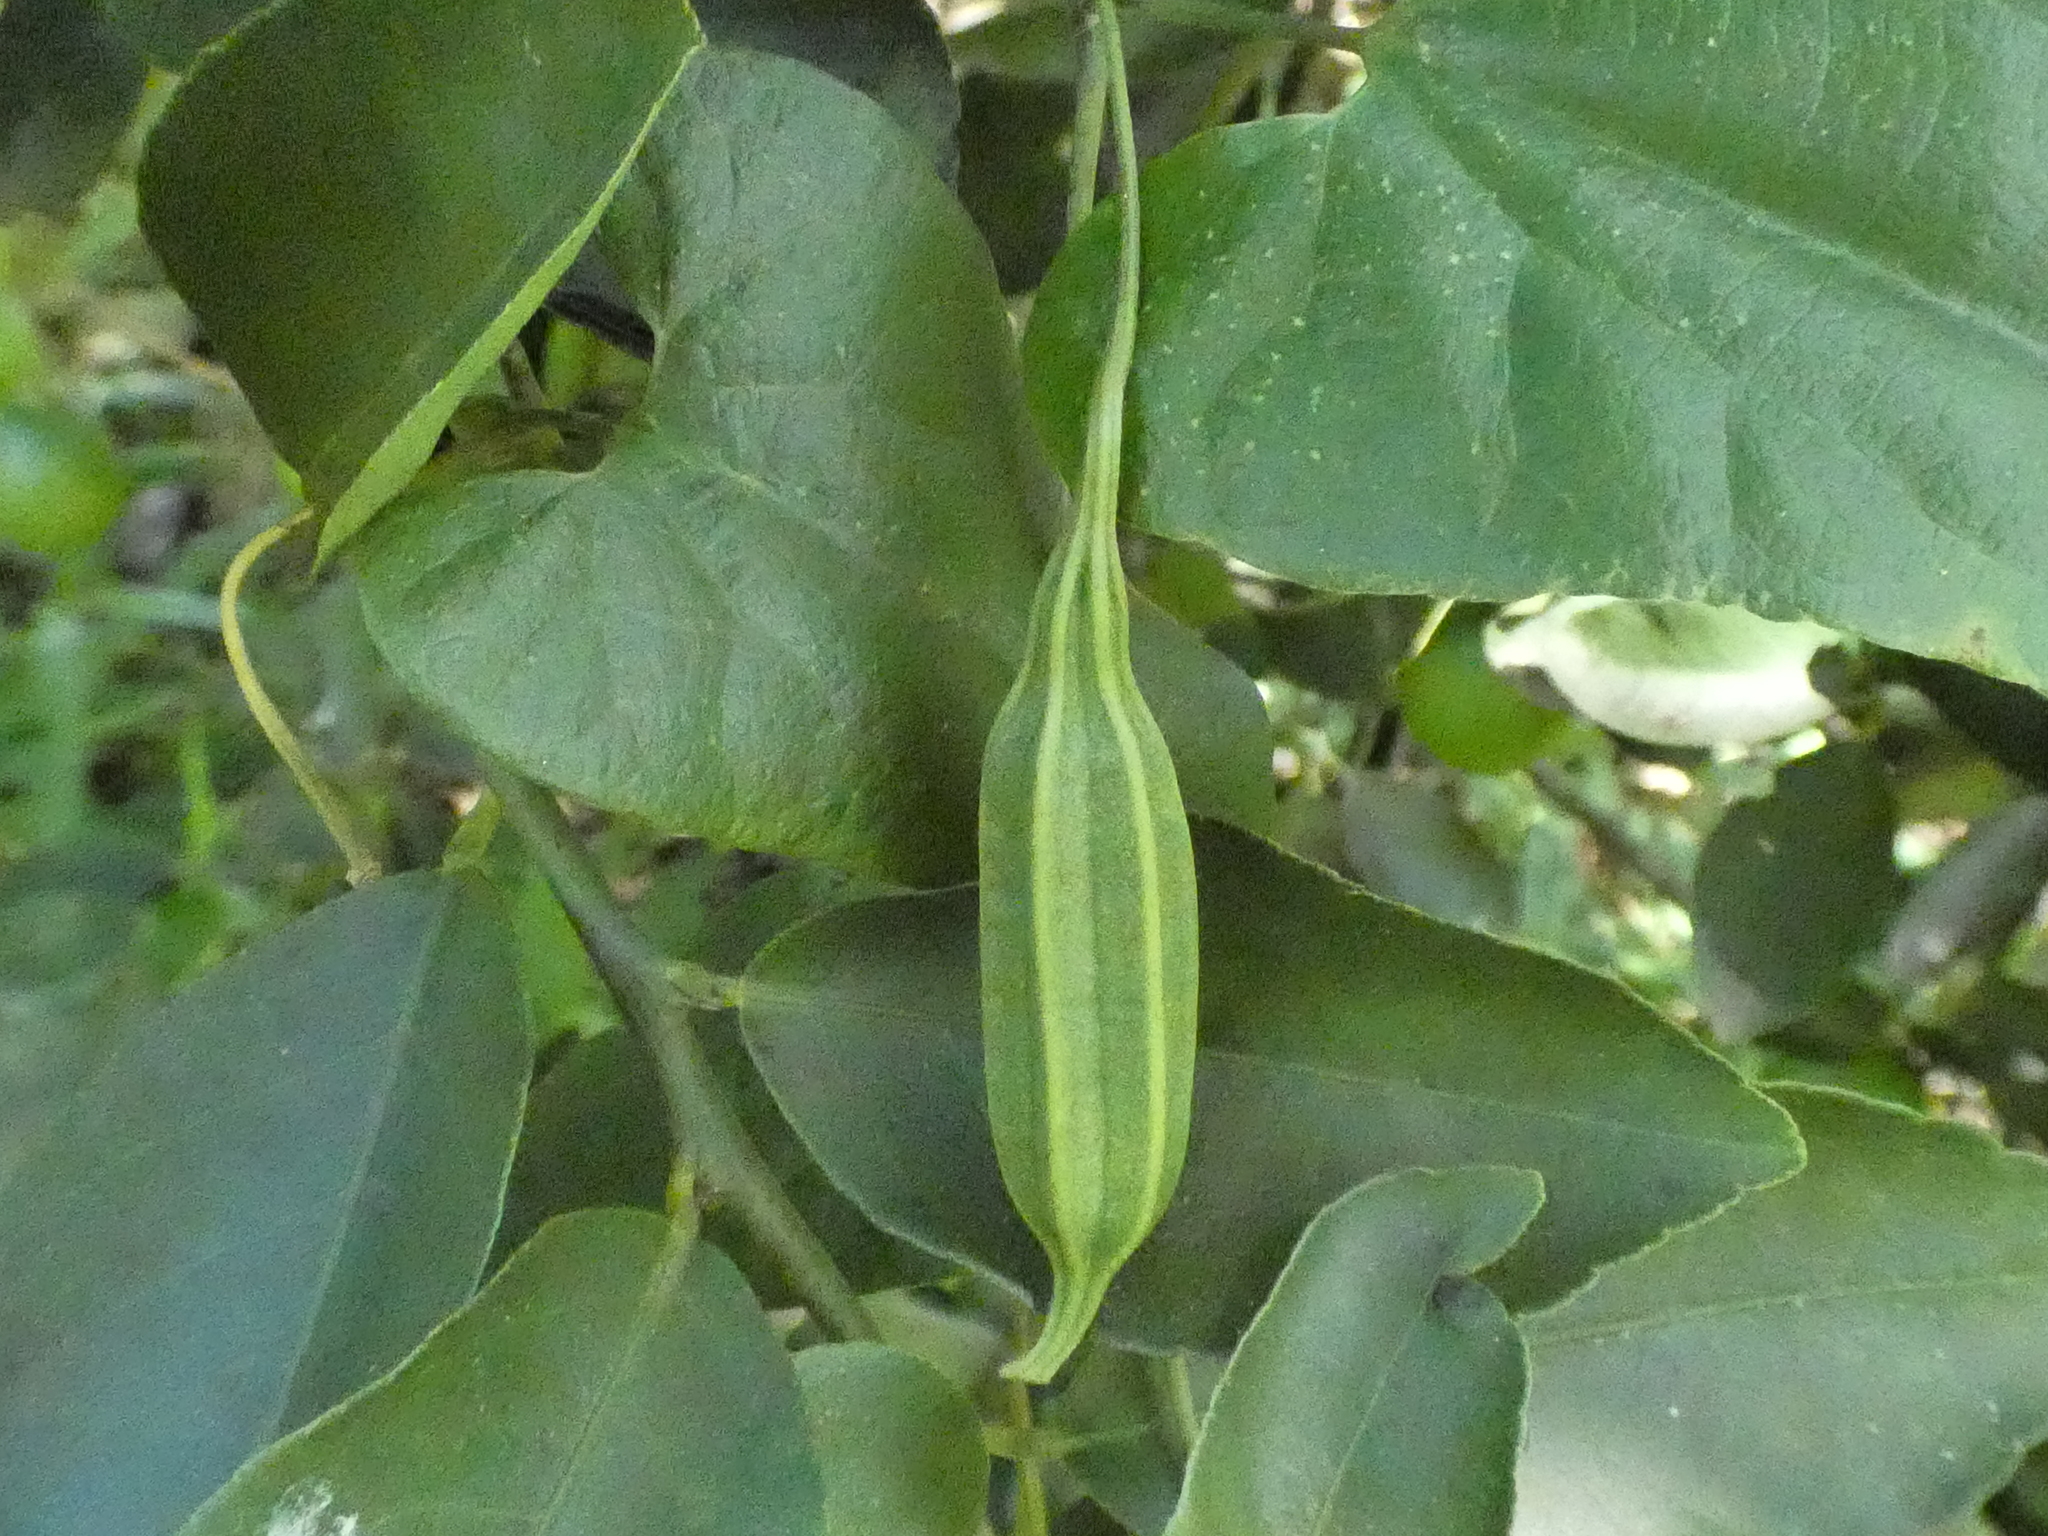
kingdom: Plantae
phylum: Tracheophyta
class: Magnoliopsida
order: Piperales
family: Aristolochiaceae
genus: Aristolochia
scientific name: Aristolochia papillaris
